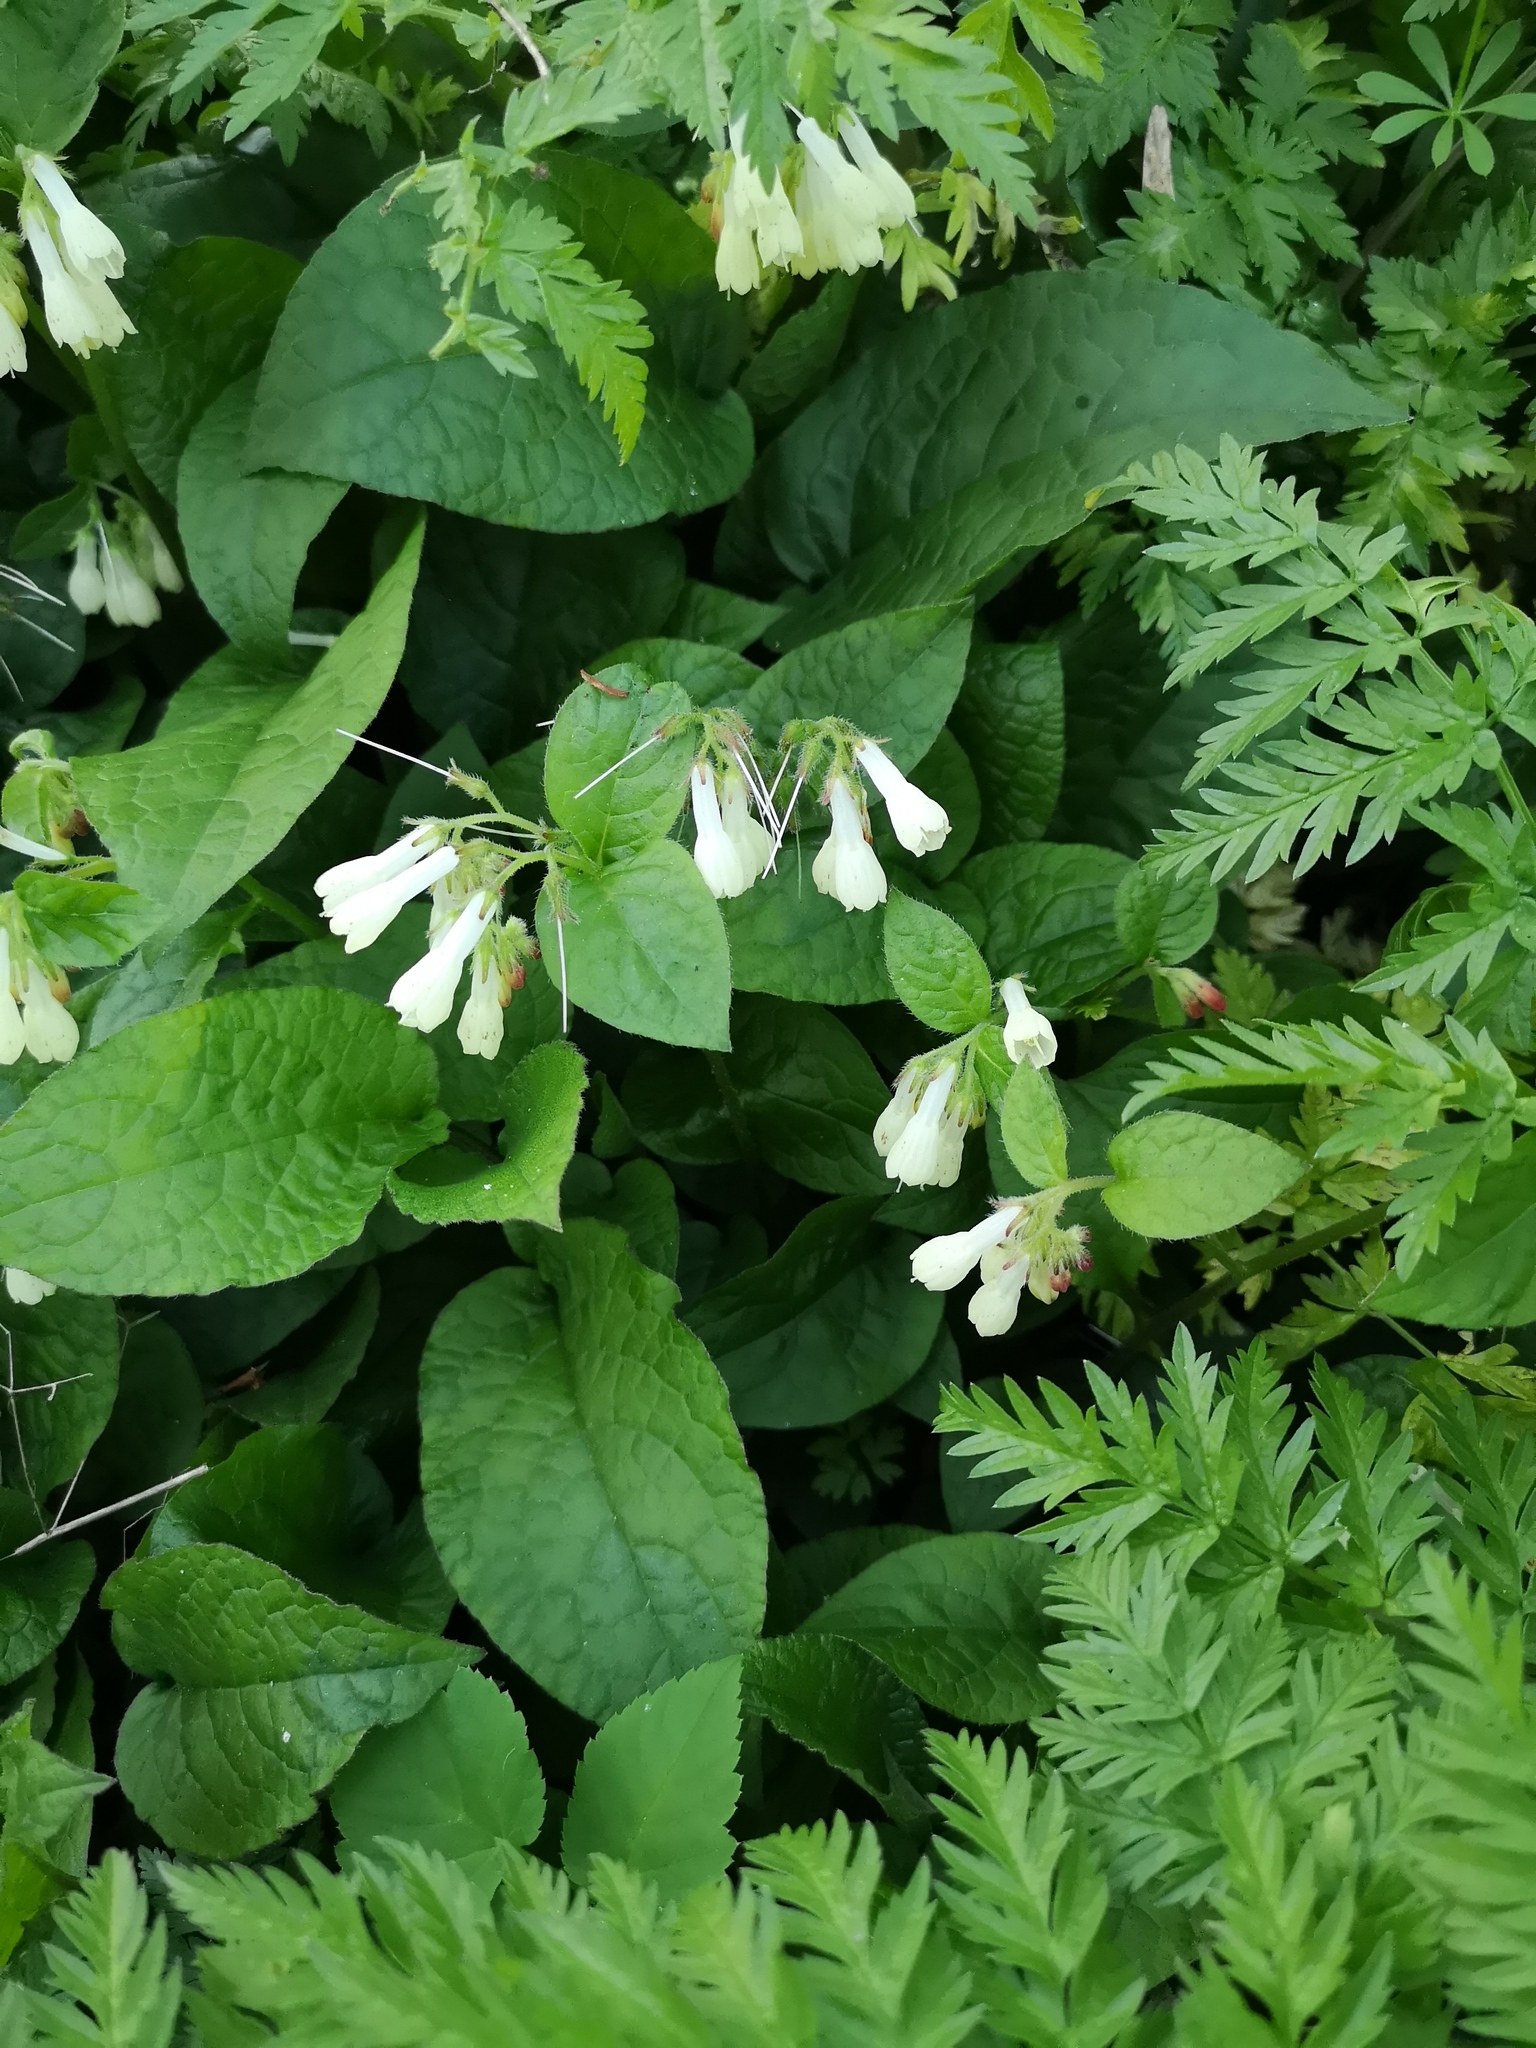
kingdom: Plantae
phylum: Tracheophyta
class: Magnoliopsida
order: Boraginales
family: Boraginaceae
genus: Symphytum
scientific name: Symphytum officinale
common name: Common comfrey
